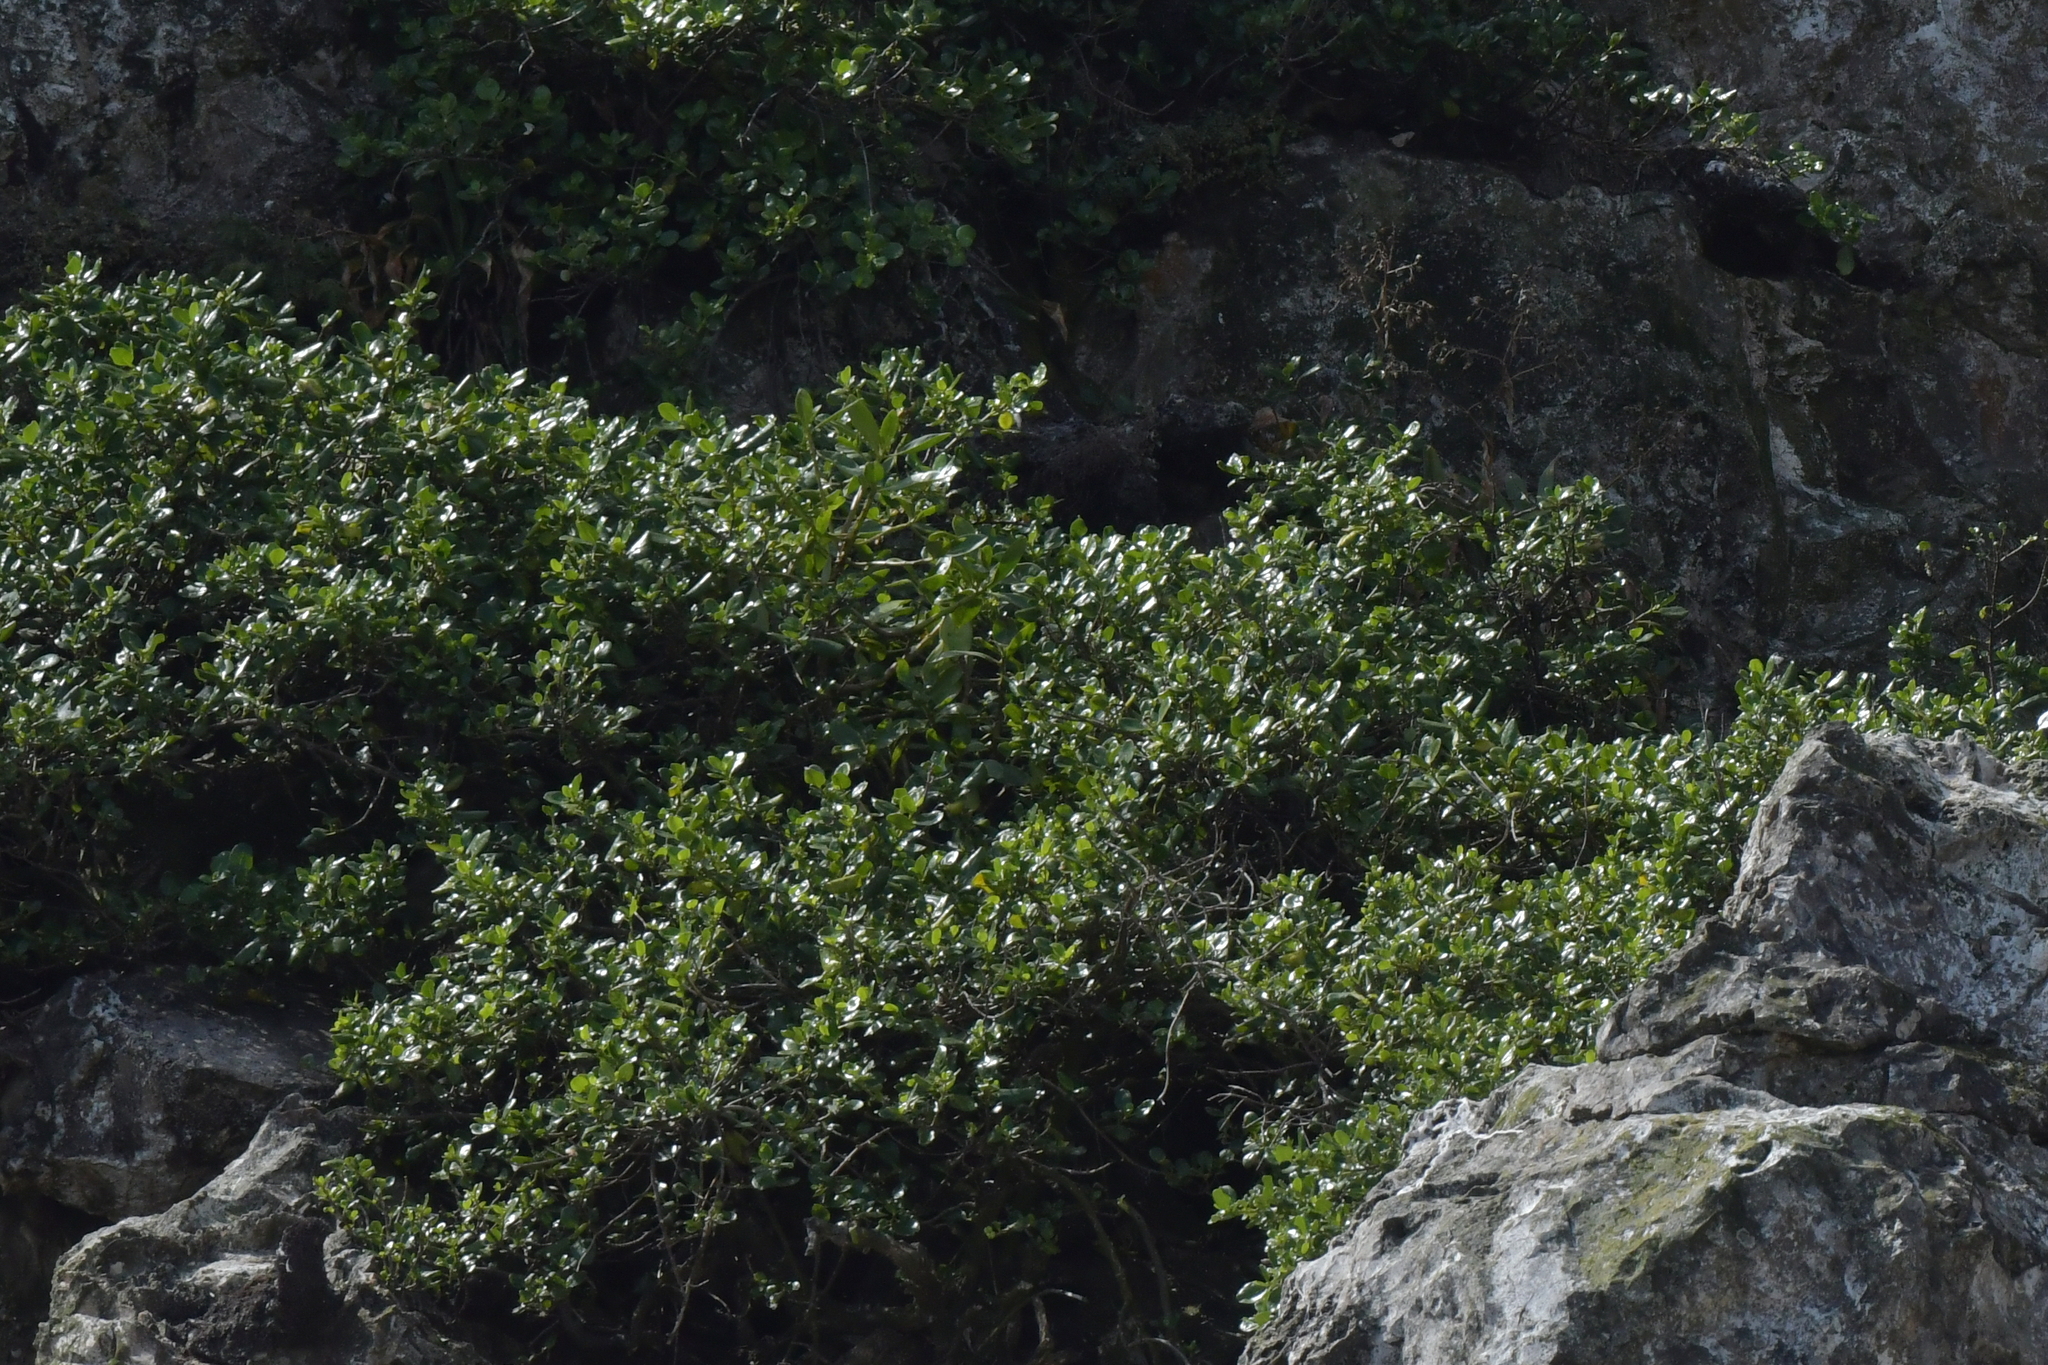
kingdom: Plantae
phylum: Tracheophyta
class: Magnoliopsida
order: Gentianales
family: Rubiaceae
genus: Coprosma
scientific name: Coprosma repens
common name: Tree bedstraw
